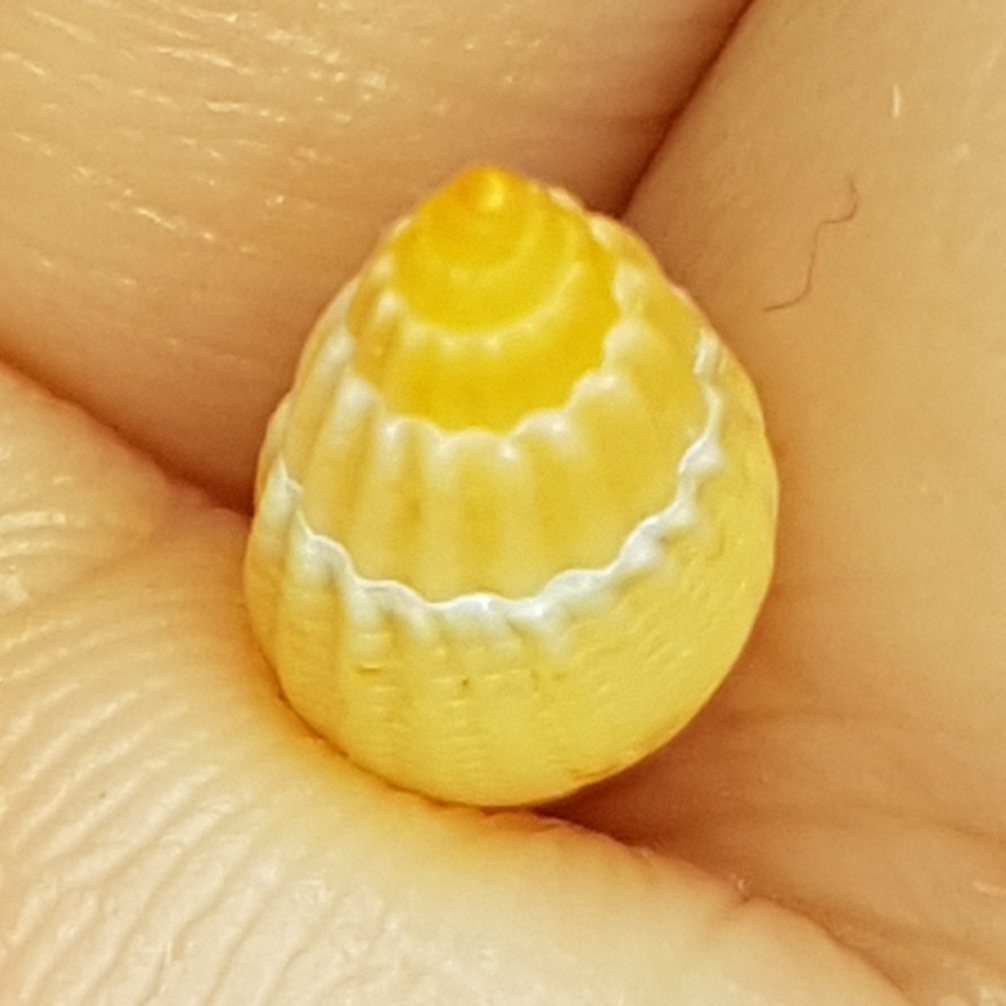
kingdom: Animalia
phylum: Mollusca
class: Gastropoda
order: Neogastropoda
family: Nassariidae
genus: Tritia
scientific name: Tritia cuvierii
